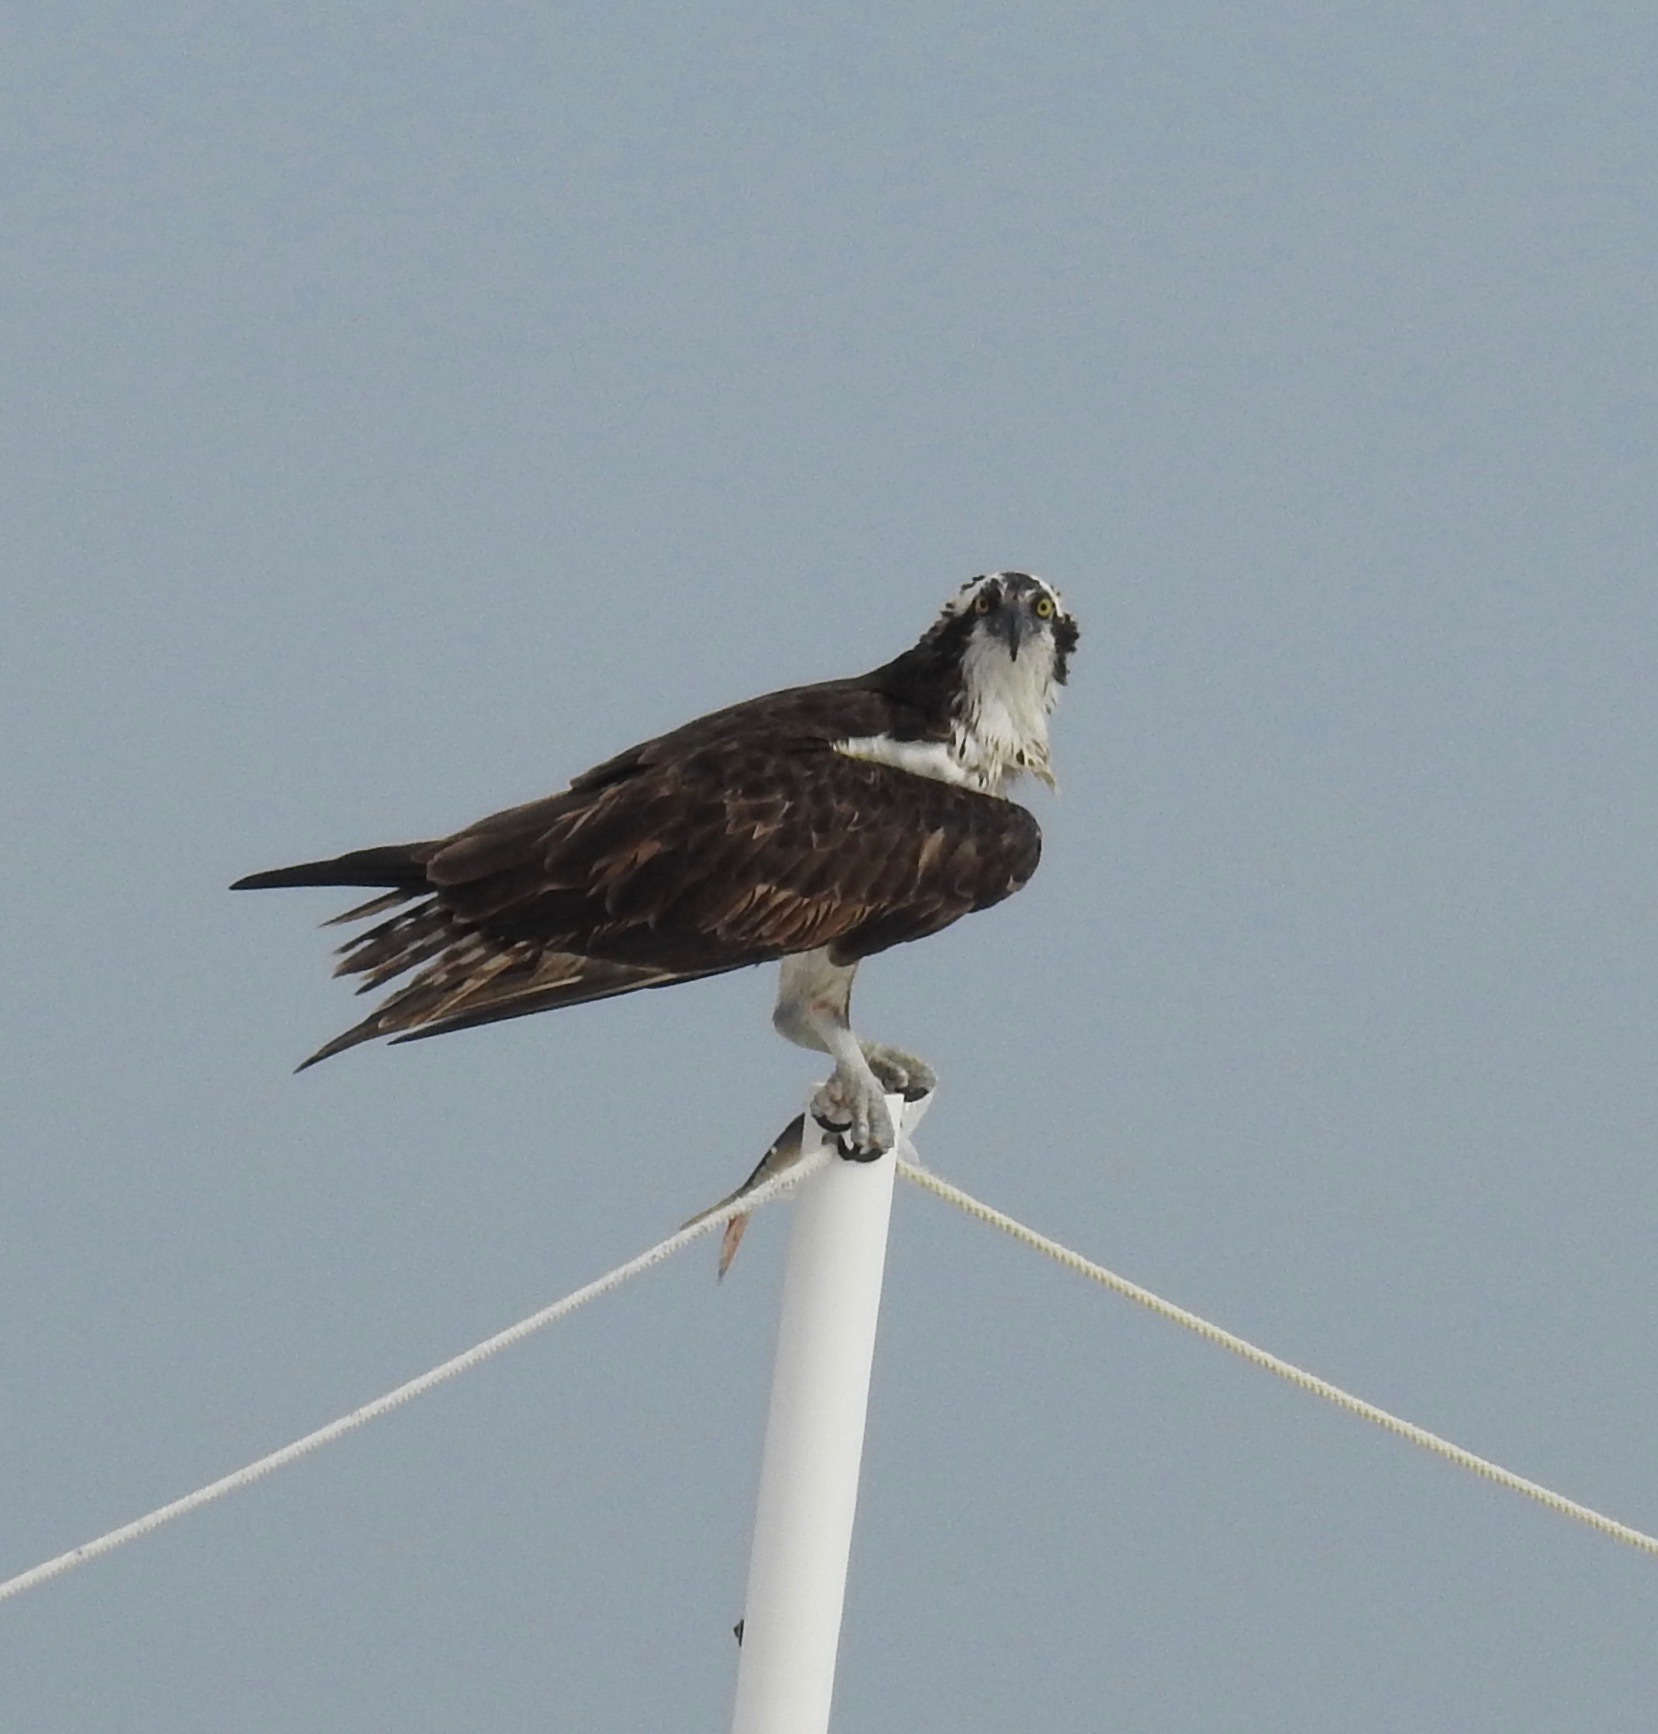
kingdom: Animalia
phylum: Chordata
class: Aves
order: Accipitriformes
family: Pandionidae
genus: Pandion
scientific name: Pandion haliaetus
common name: Osprey
